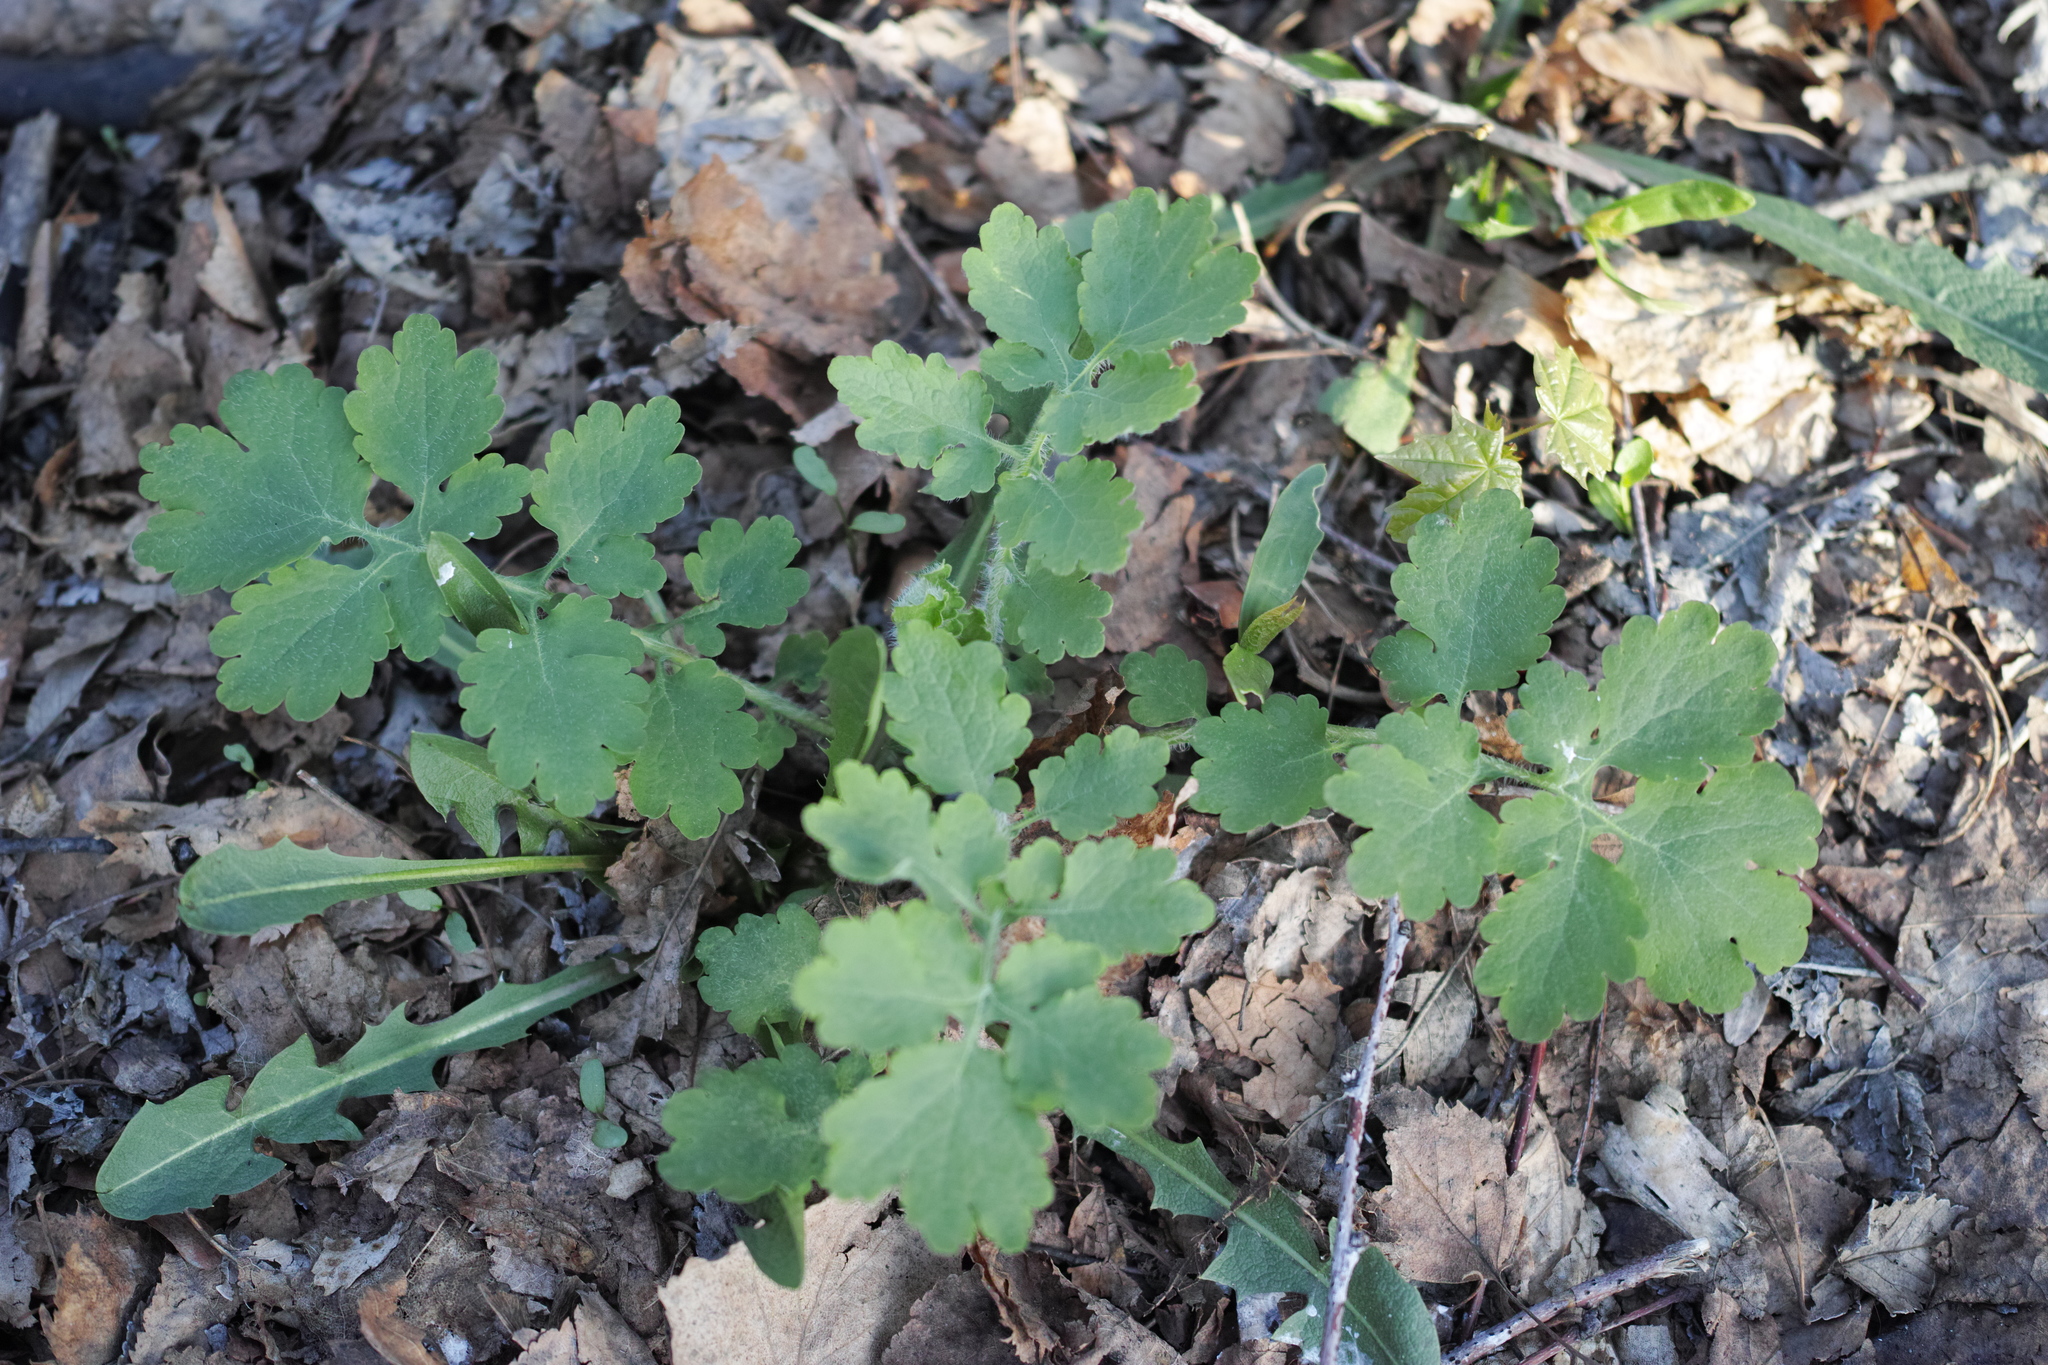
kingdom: Plantae
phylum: Tracheophyta
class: Magnoliopsida
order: Ranunculales
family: Papaveraceae
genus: Chelidonium
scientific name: Chelidonium majus
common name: Greater celandine
